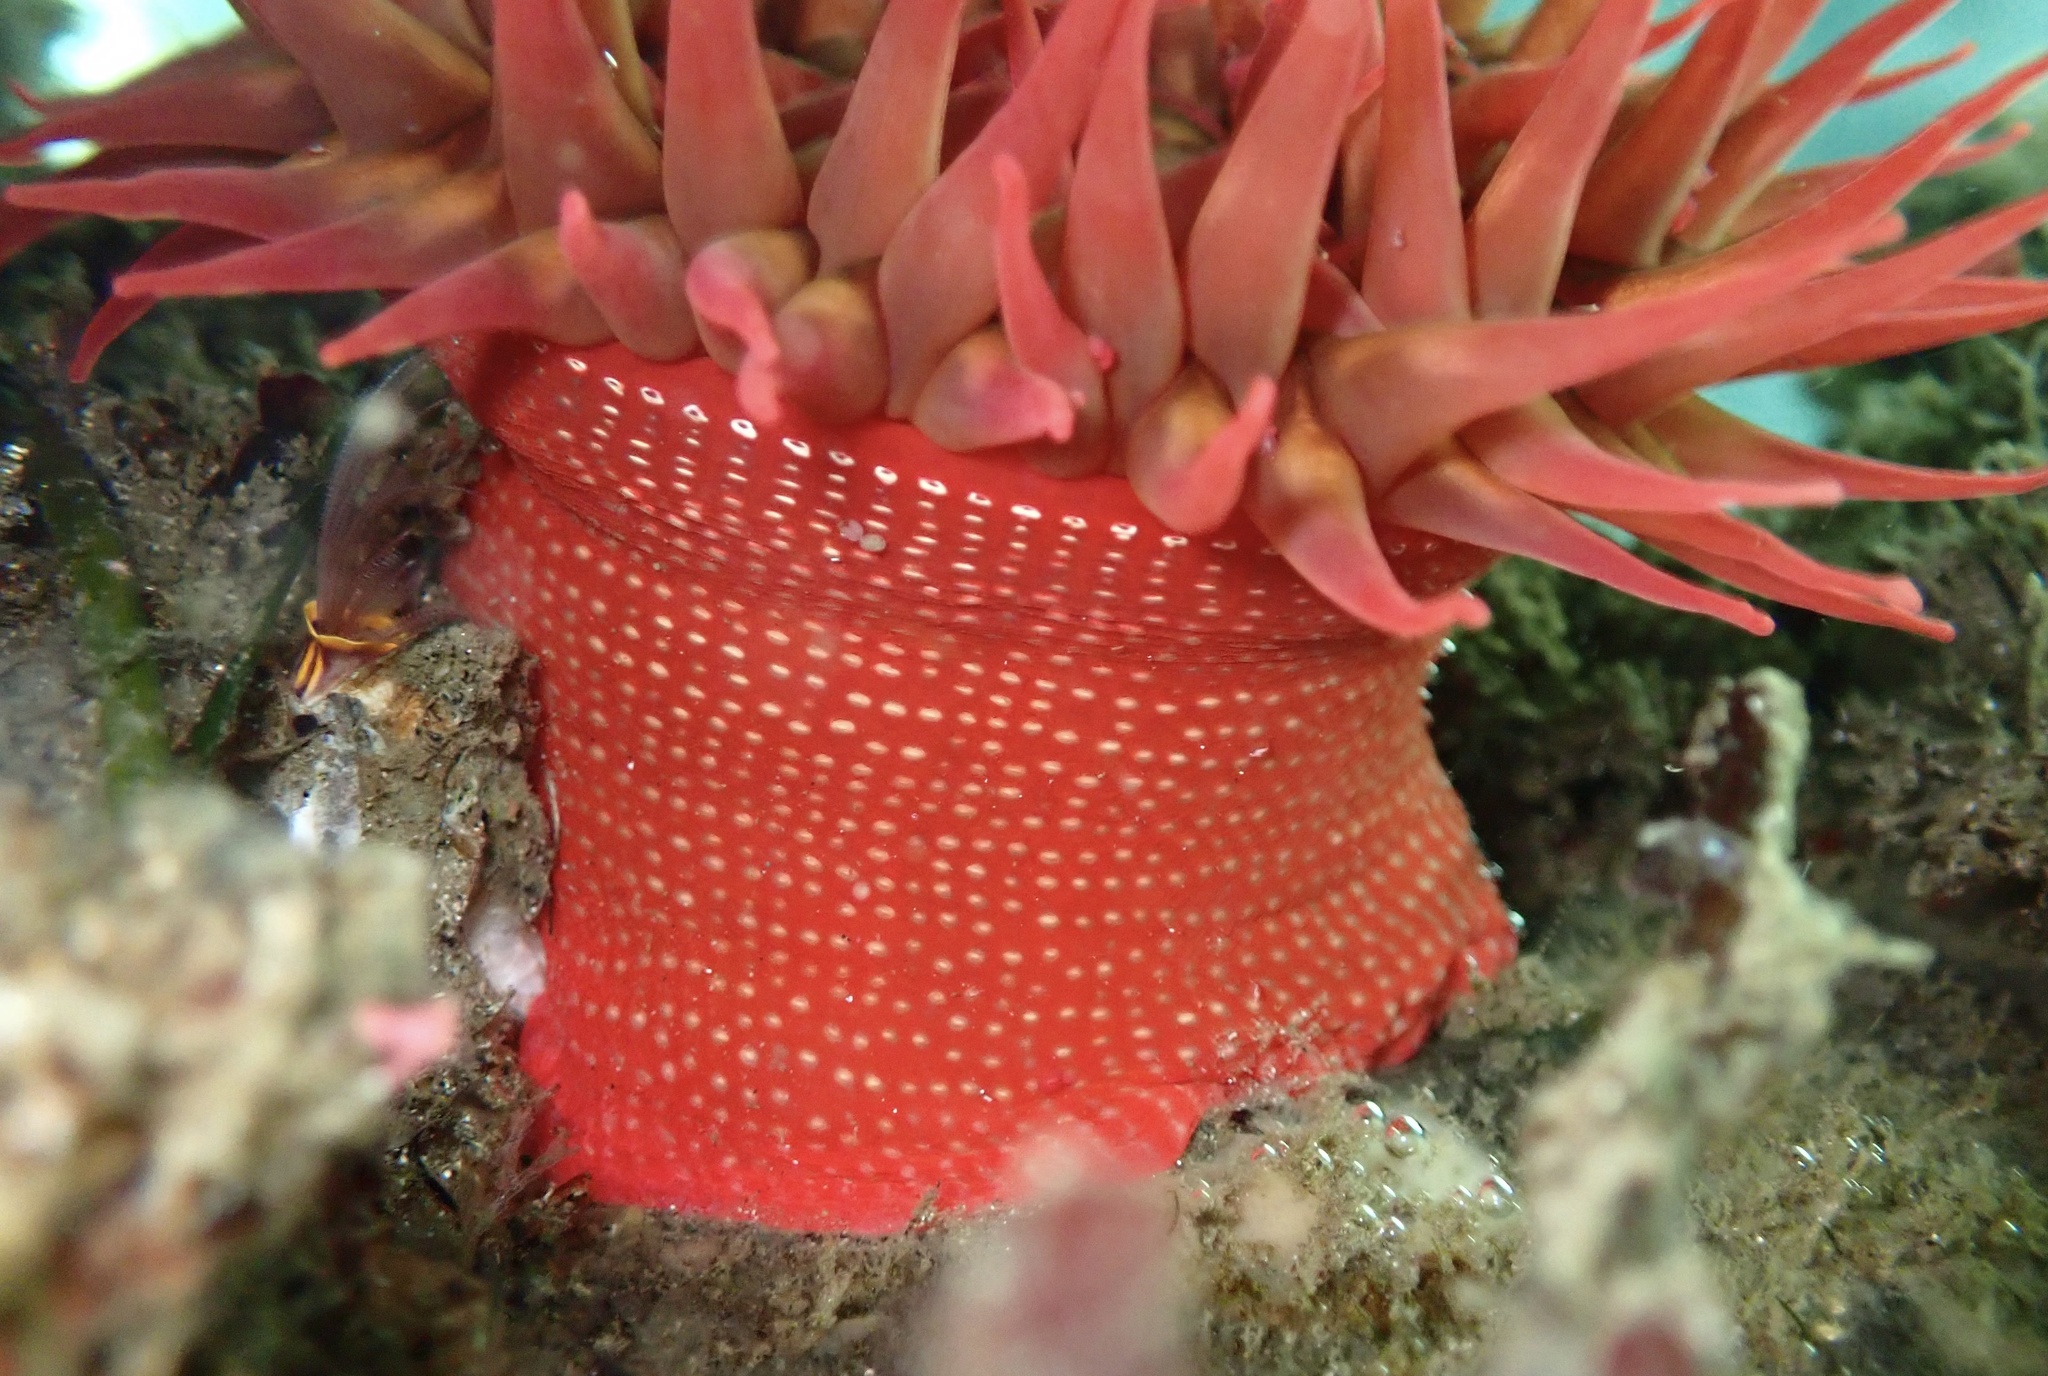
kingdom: Animalia
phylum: Cnidaria
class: Anthozoa
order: Actiniaria
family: Actiniidae
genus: Cribrinopsis
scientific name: Cribrinopsis albopunctata
